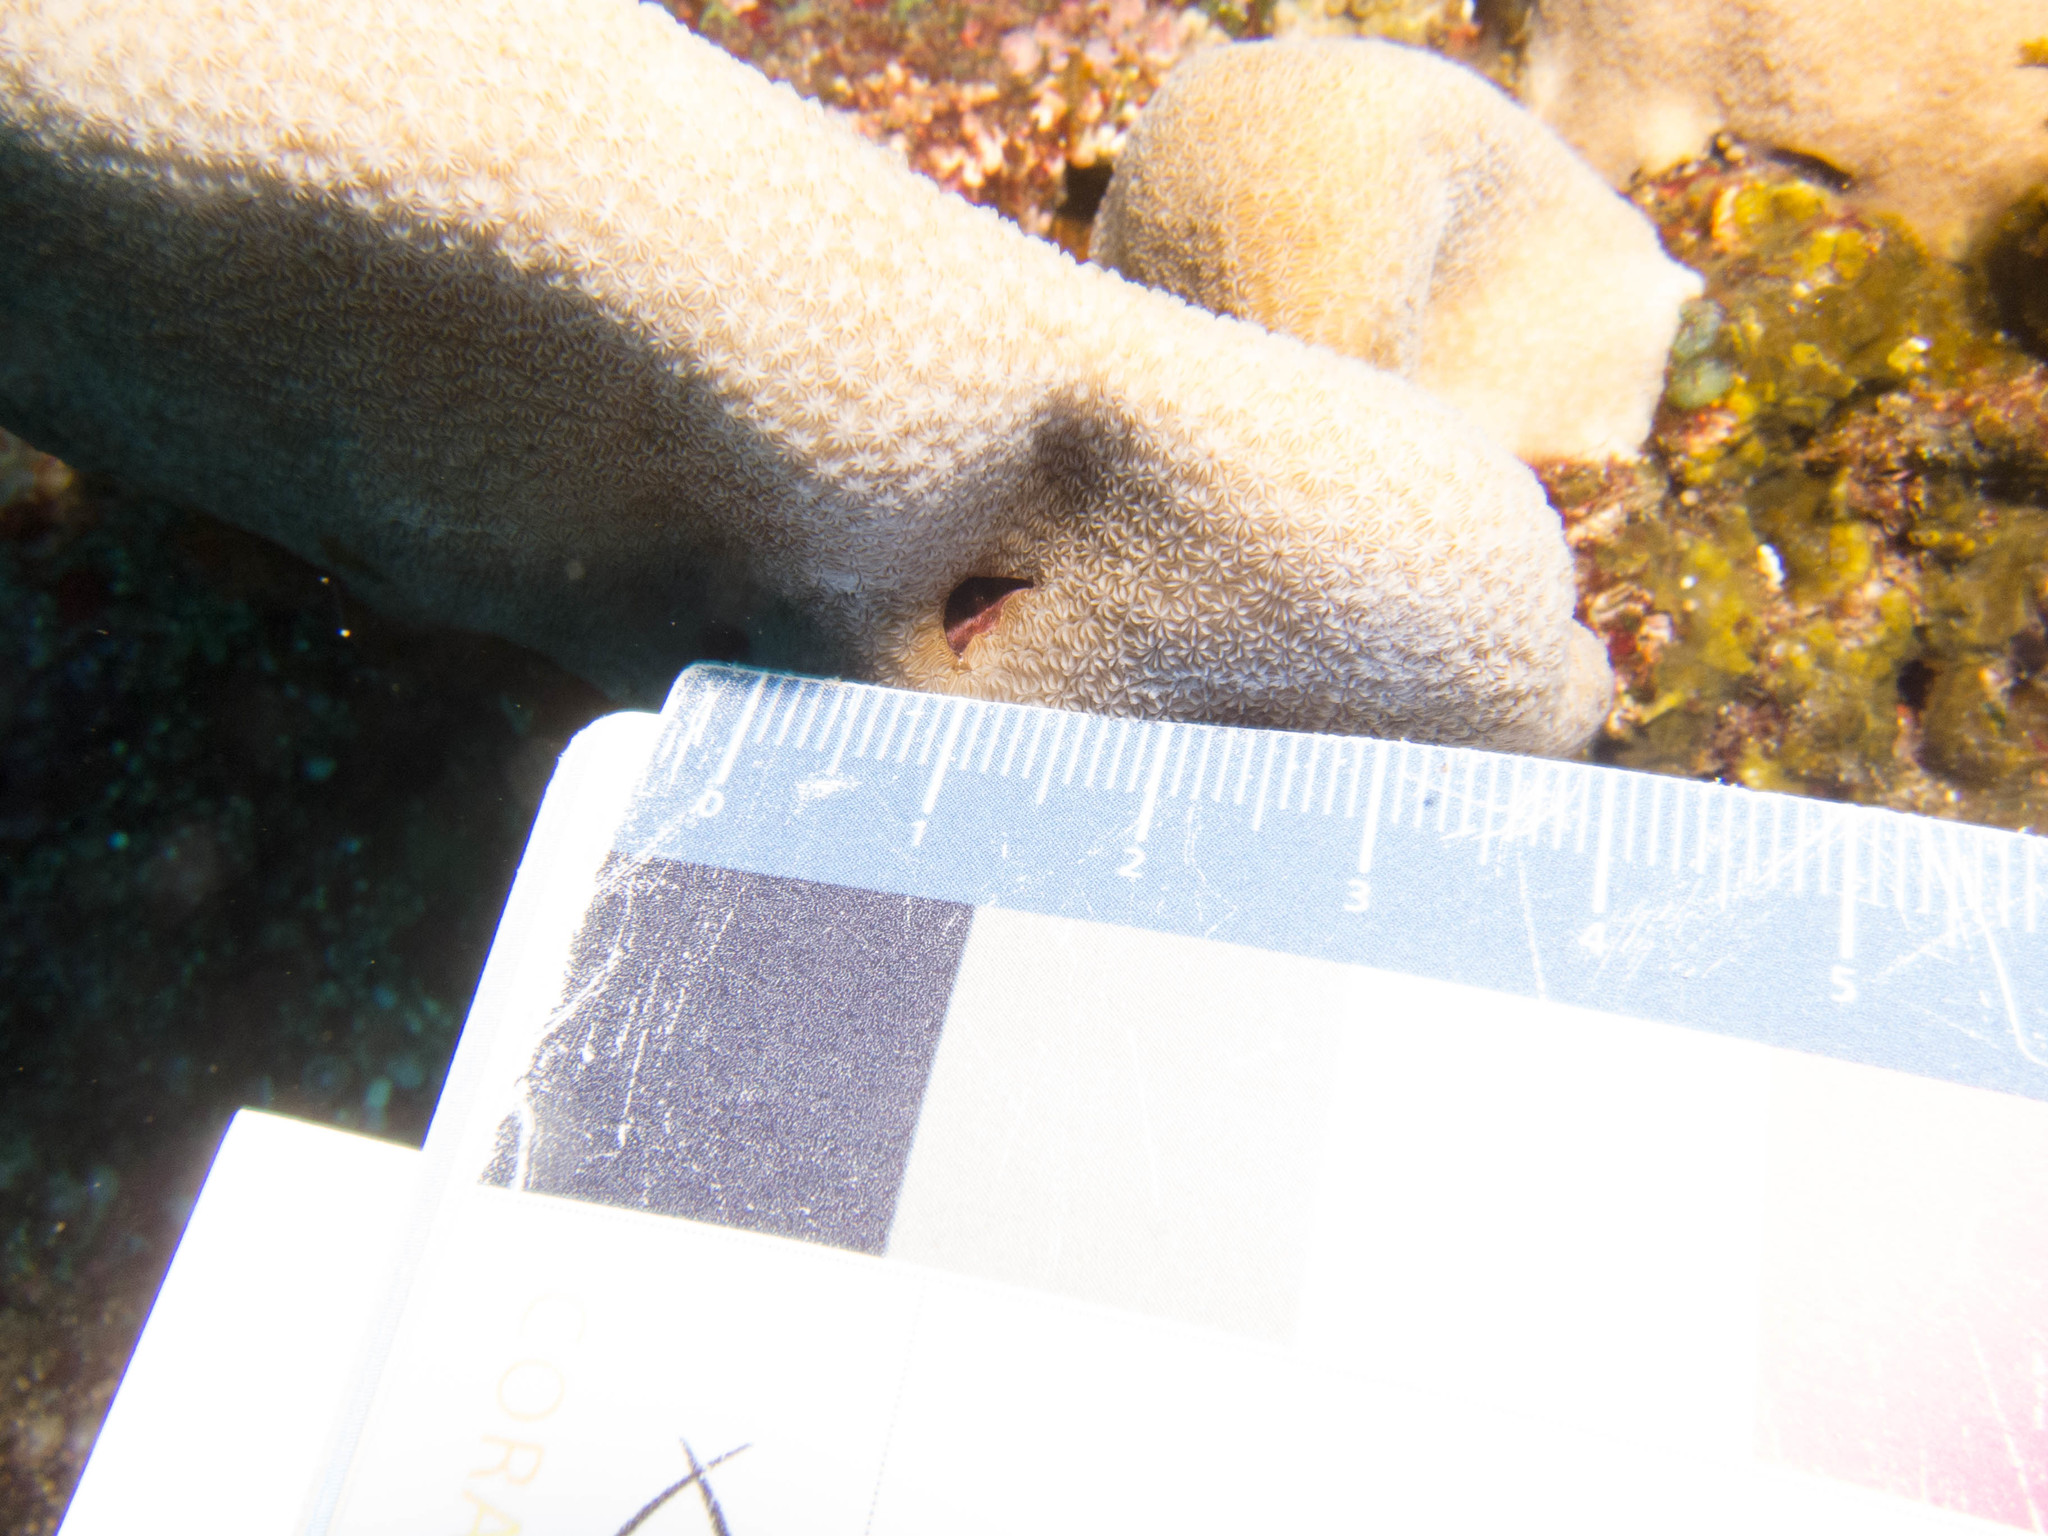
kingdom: Animalia
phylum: Cnidaria
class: Anthozoa
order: Scleractinia
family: Agariciidae
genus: Pavona
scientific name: Pavona duerdeni
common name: Leaf coral
